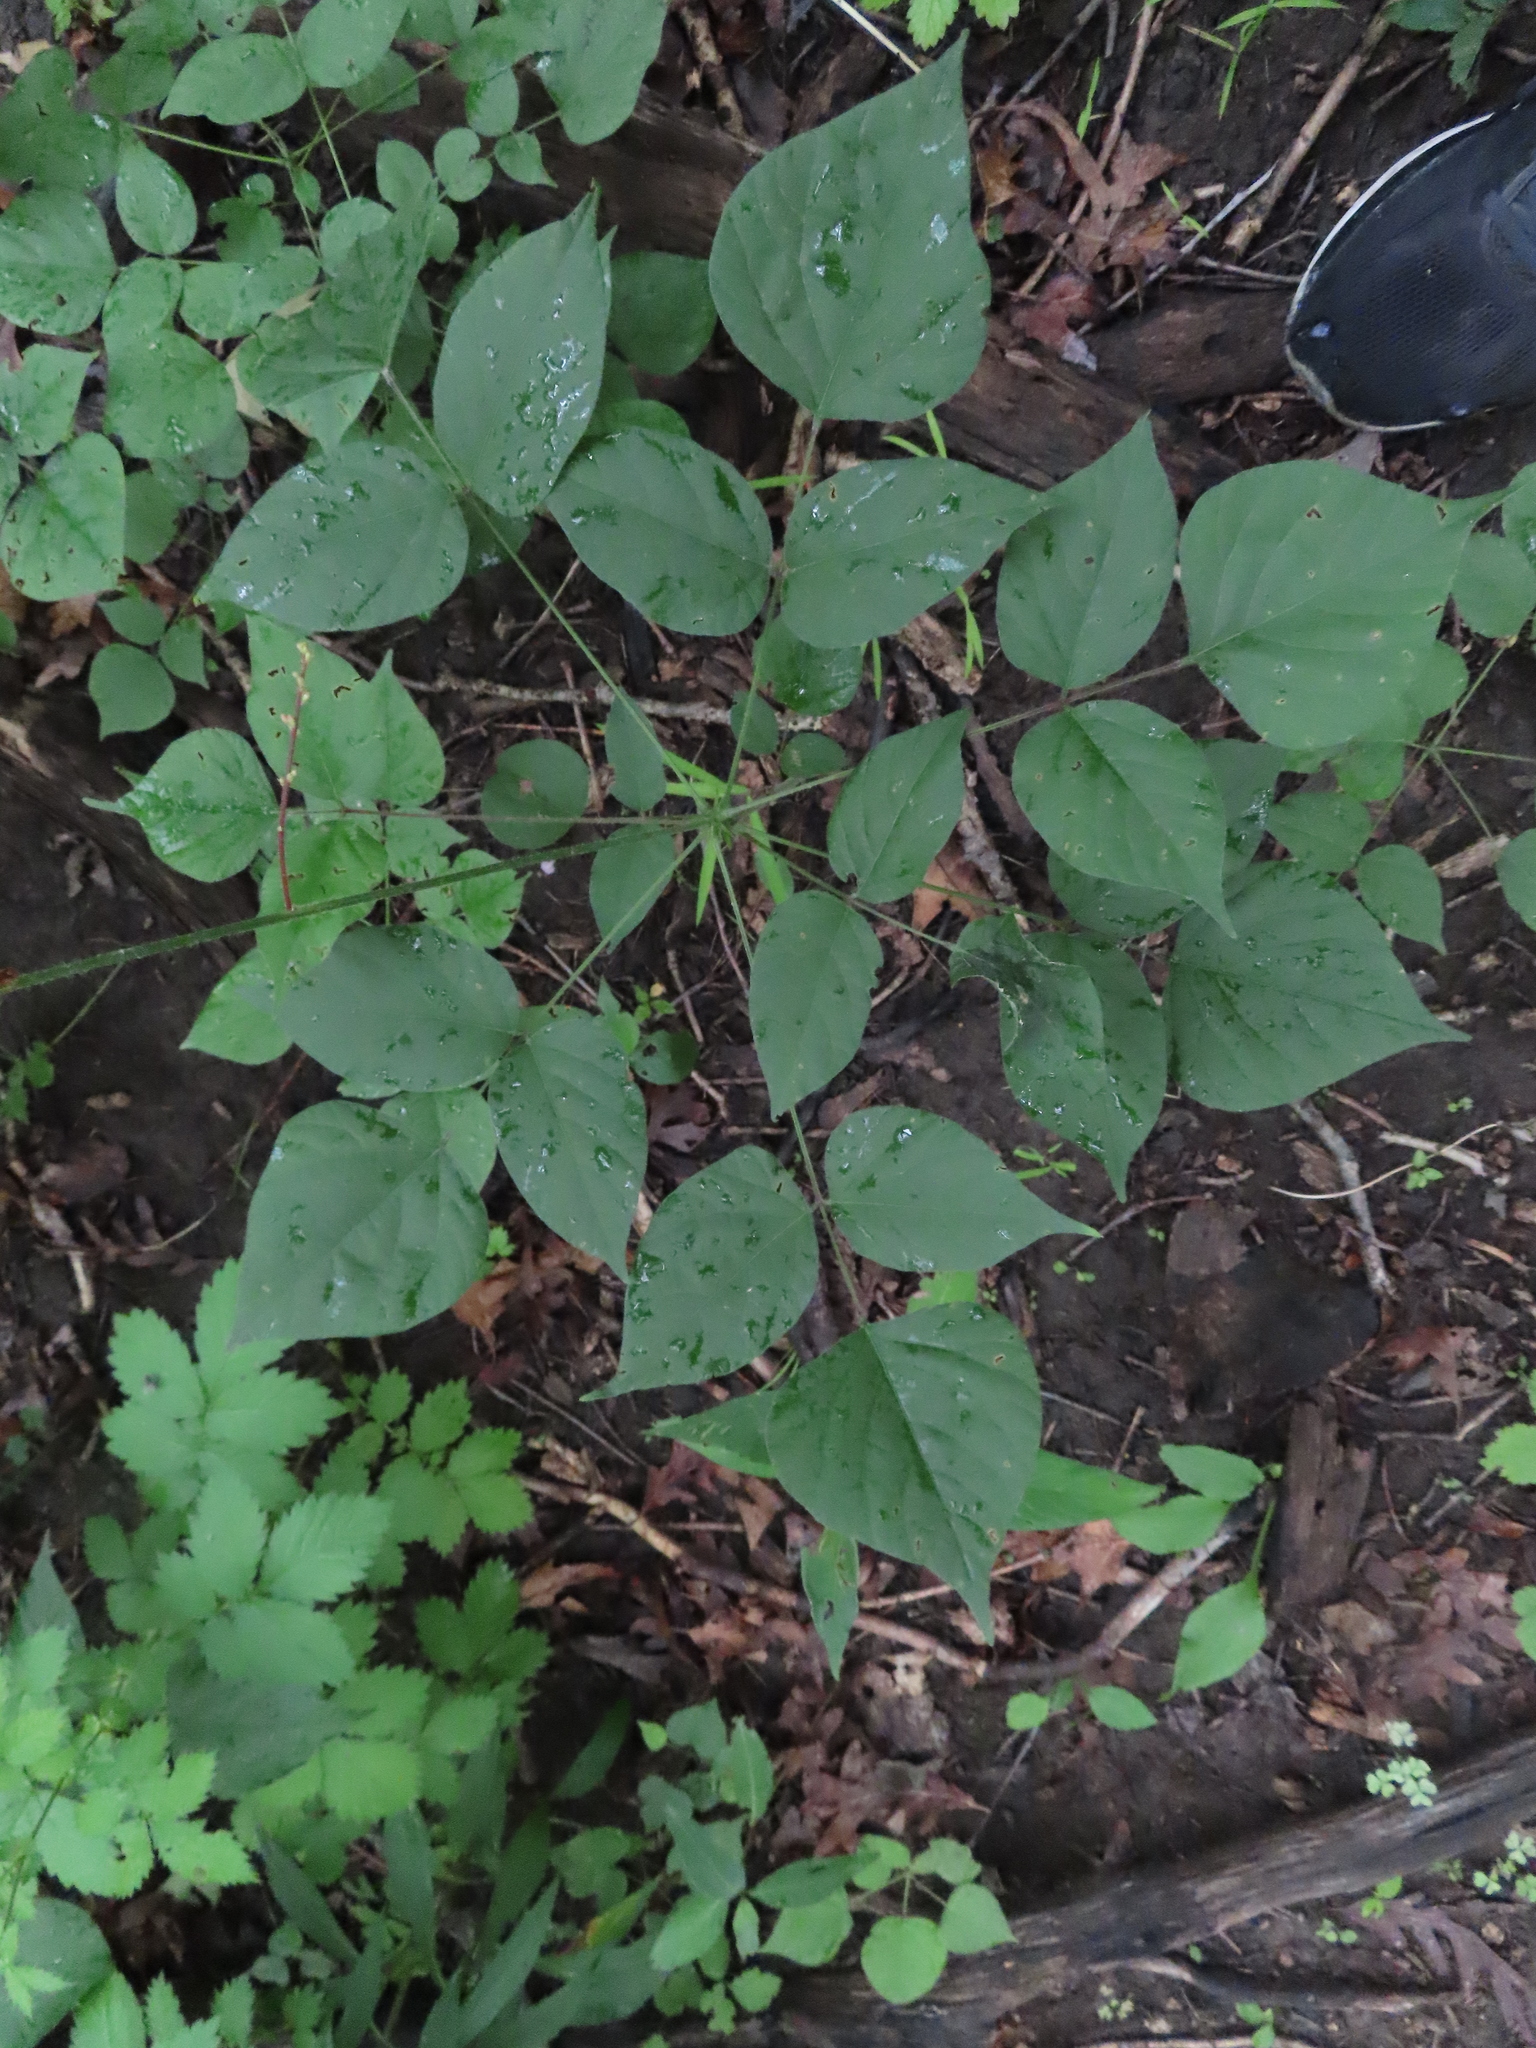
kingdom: Plantae
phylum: Tracheophyta
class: Magnoliopsida
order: Fabales
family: Fabaceae
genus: Hylodesmum
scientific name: Hylodesmum glutinosum
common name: Clustered-leaved tick-trefoil
